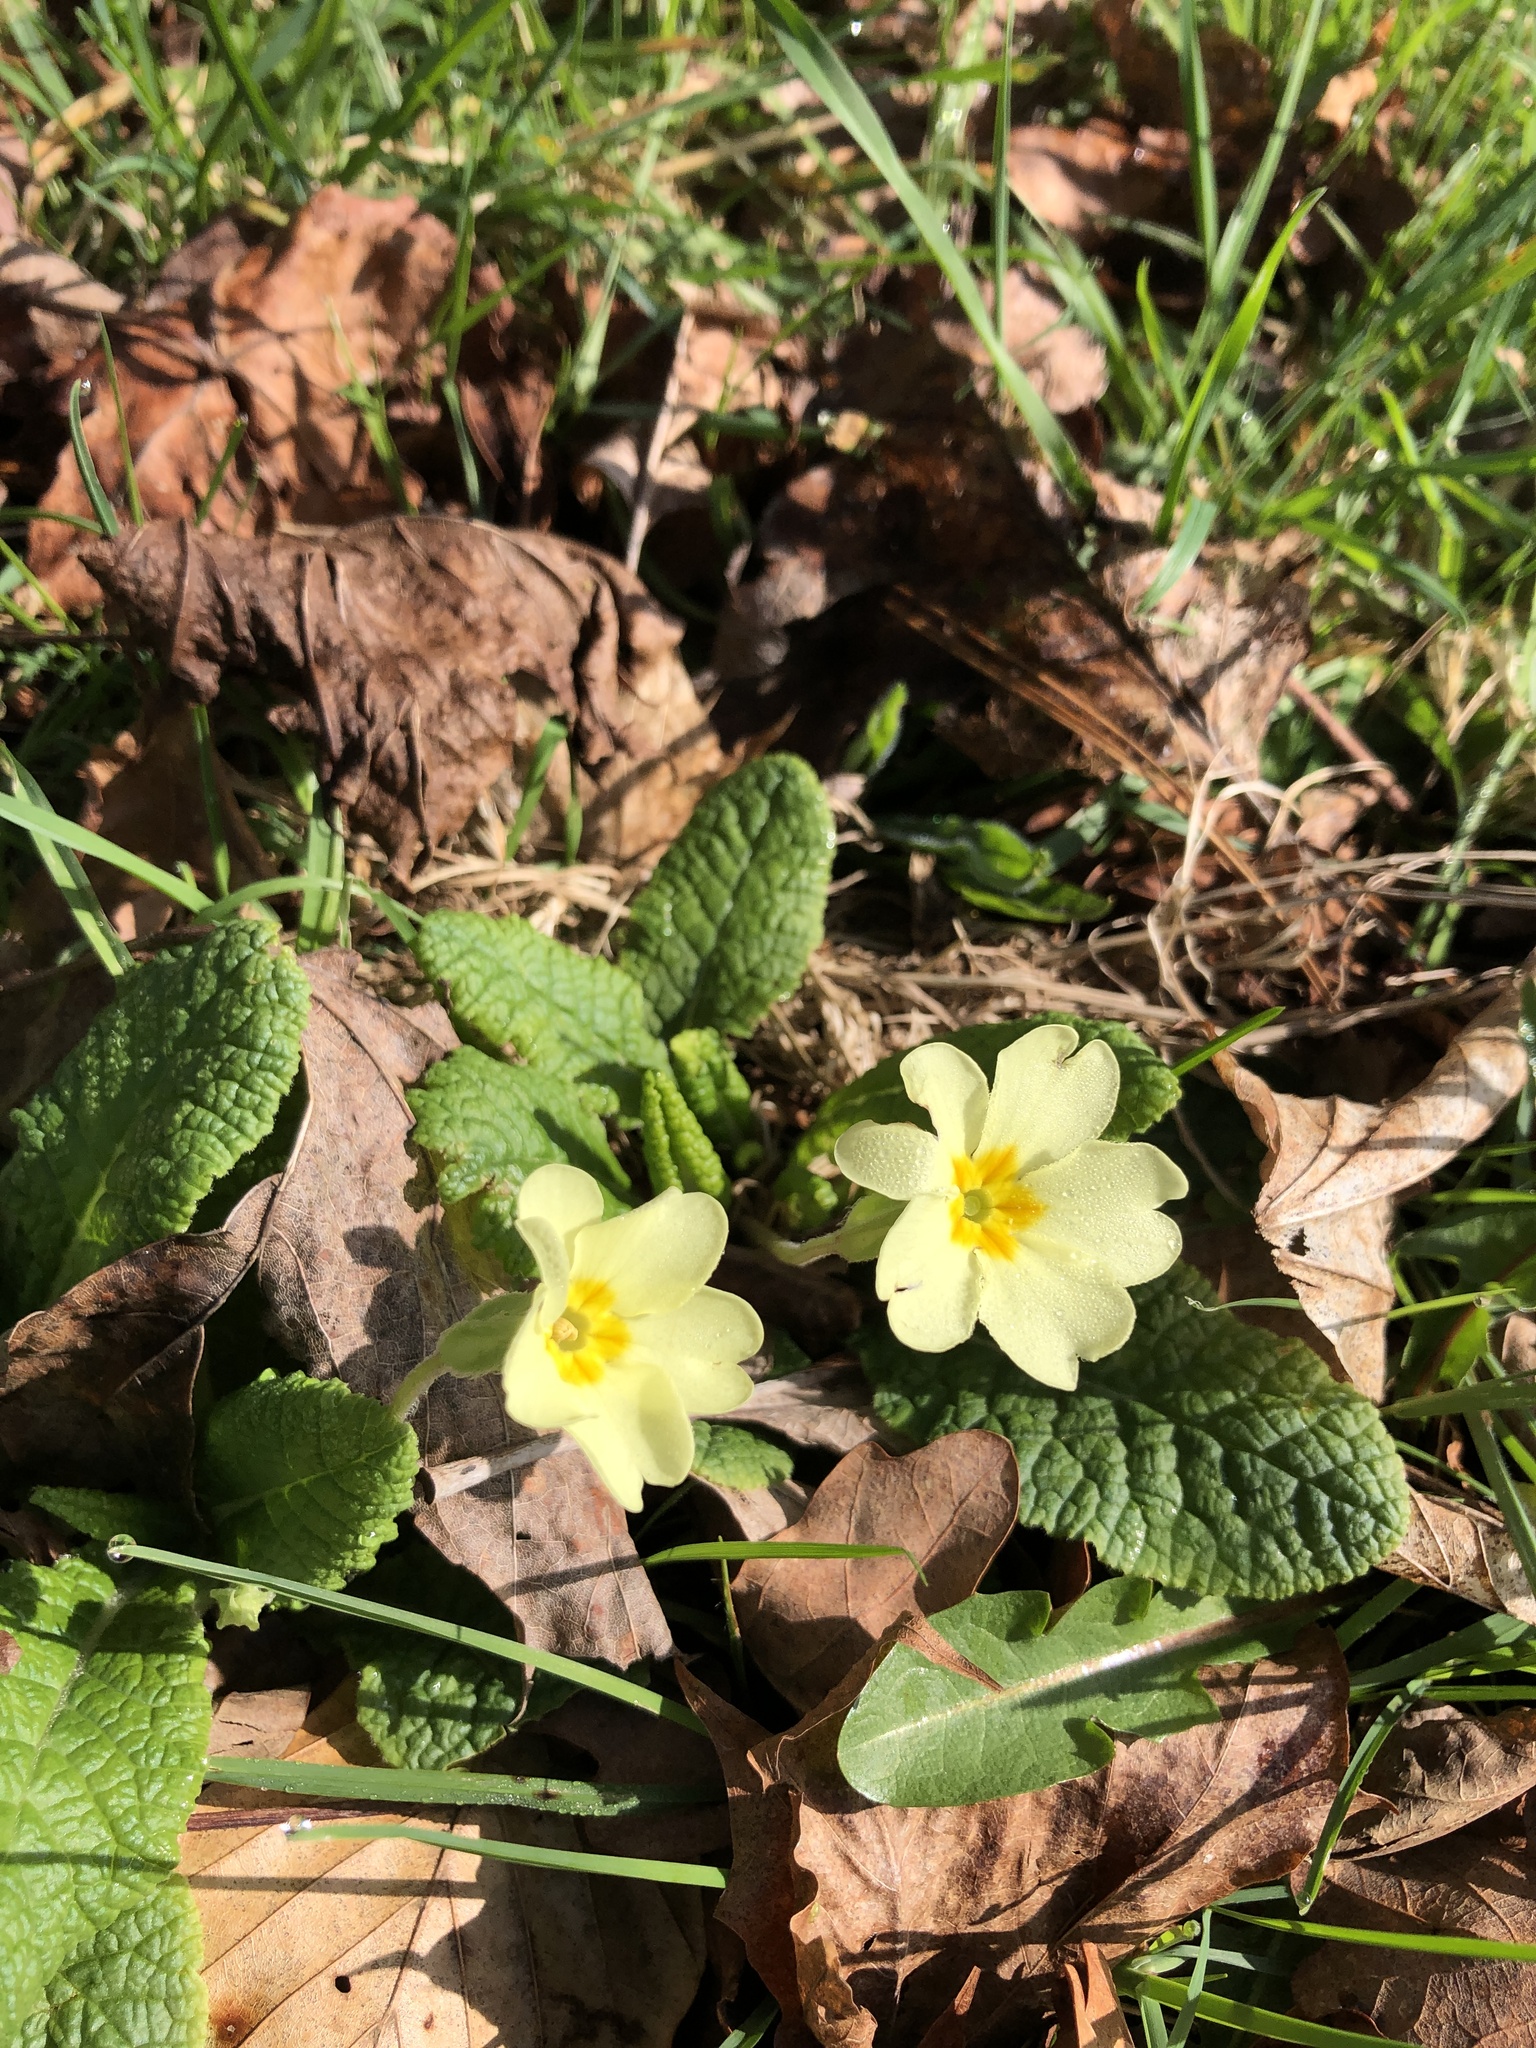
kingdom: Plantae
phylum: Tracheophyta
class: Magnoliopsida
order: Ericales
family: Primulaceae
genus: Primula
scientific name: Primula vulgaris
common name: Primrose
